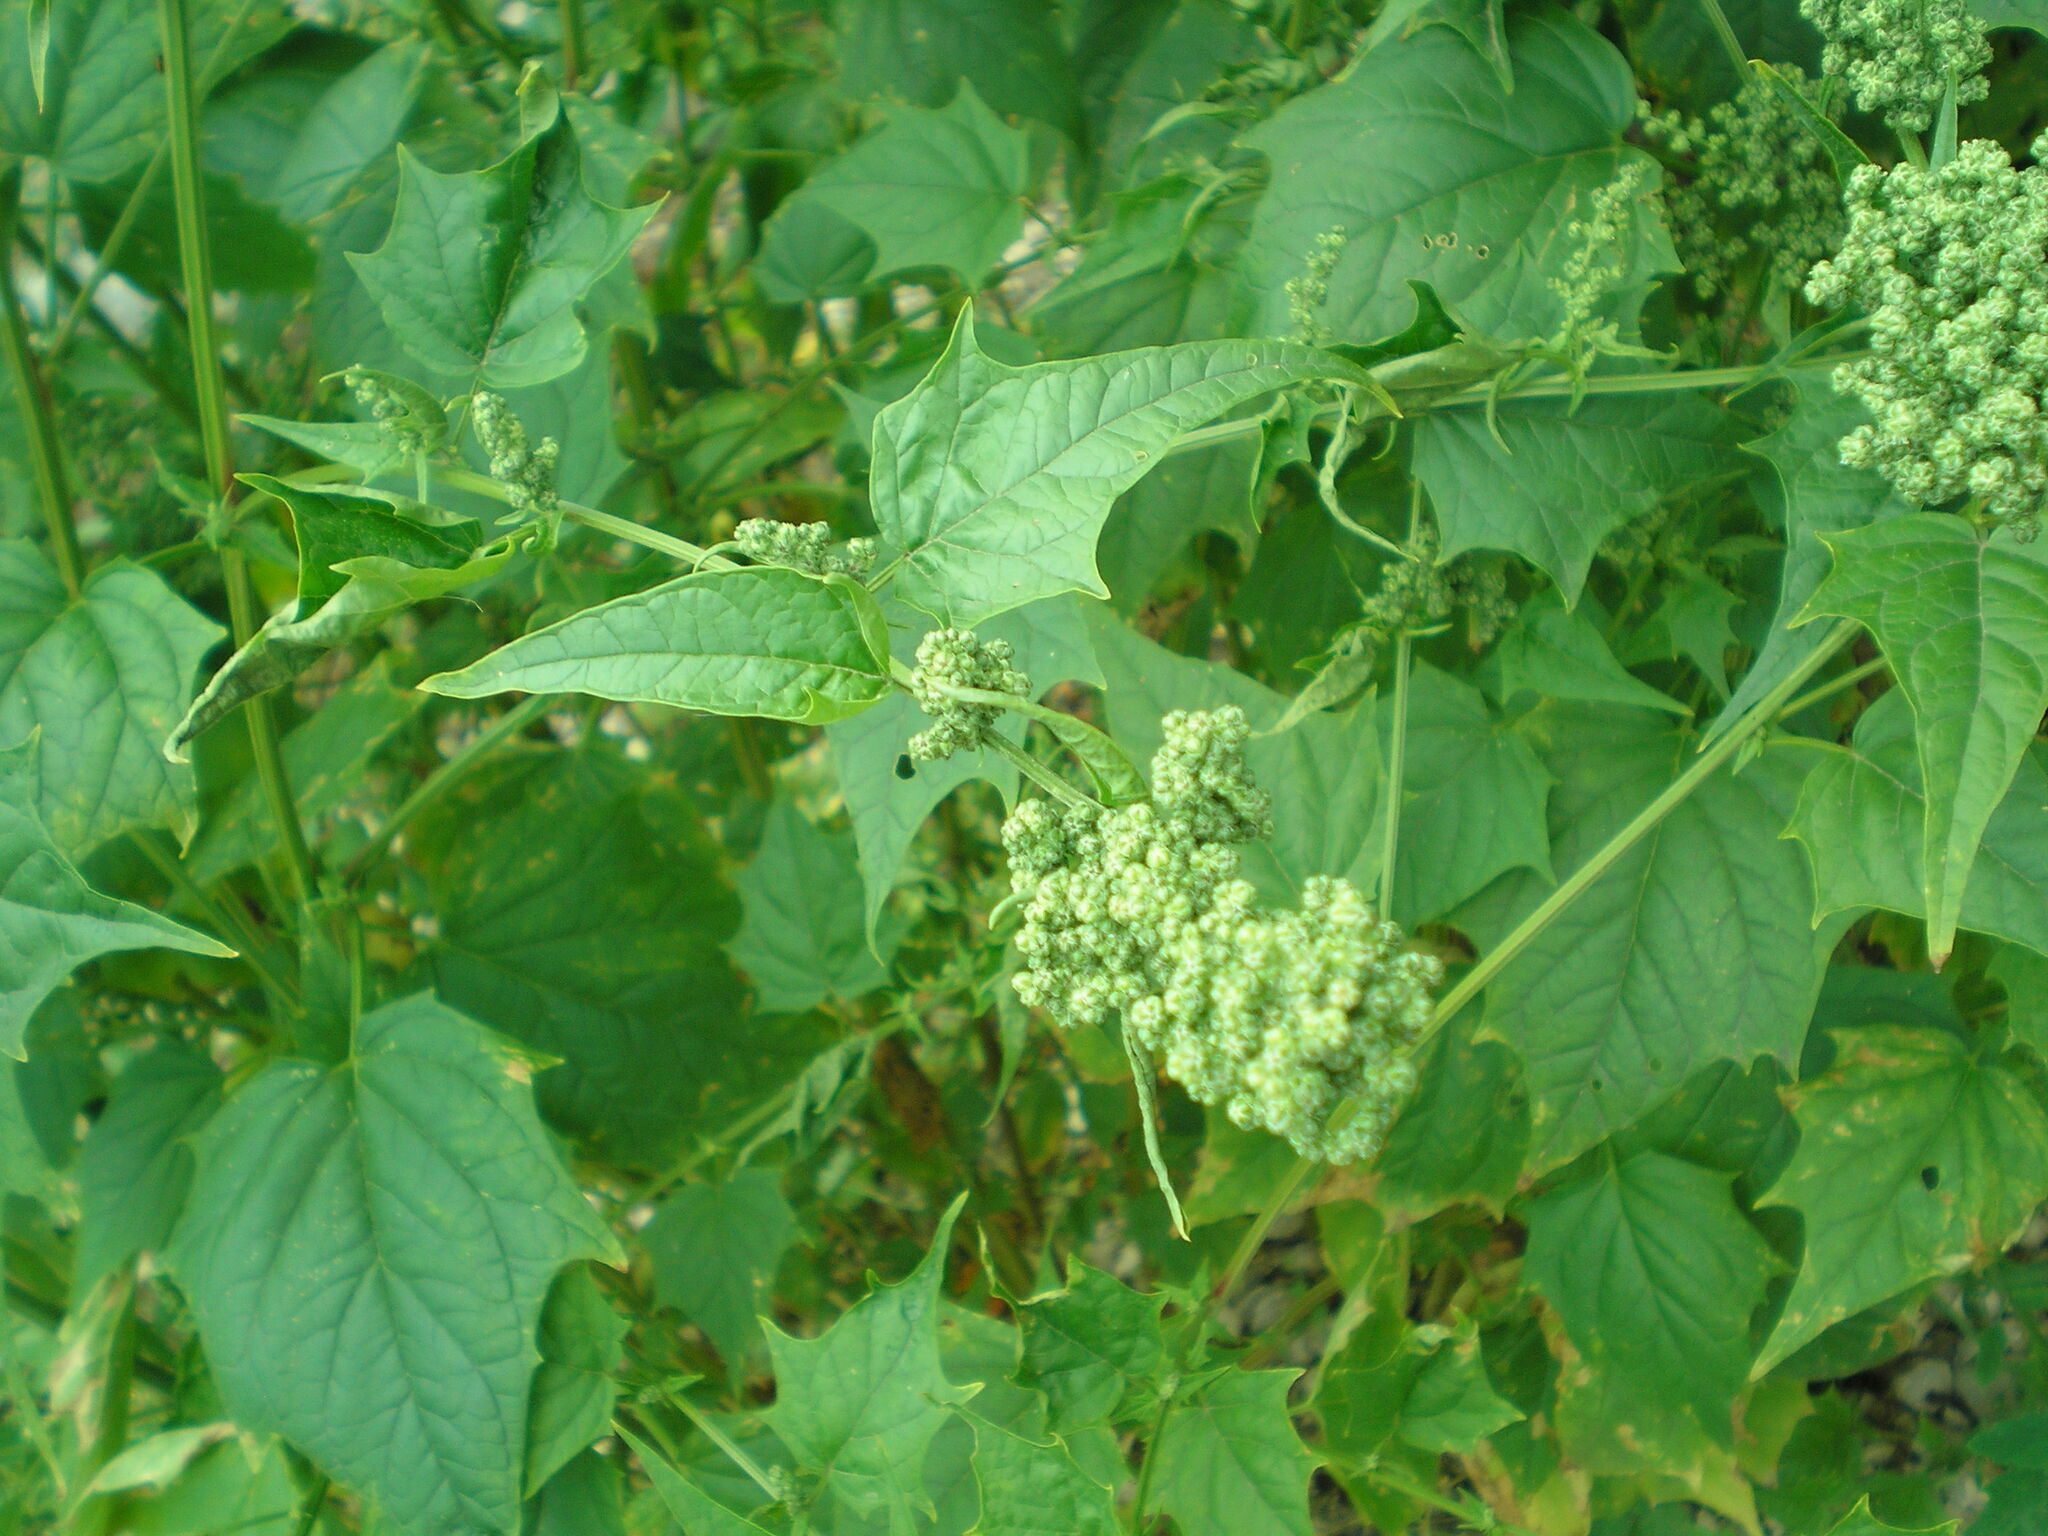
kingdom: Plantae
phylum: Tracheophyta
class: Magnoliopsida
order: Caryophyllales
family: Amaranthaceae
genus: Chenopodiastrum
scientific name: Chenopodiastrum hybridum
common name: Mapleleaf goosefoot
